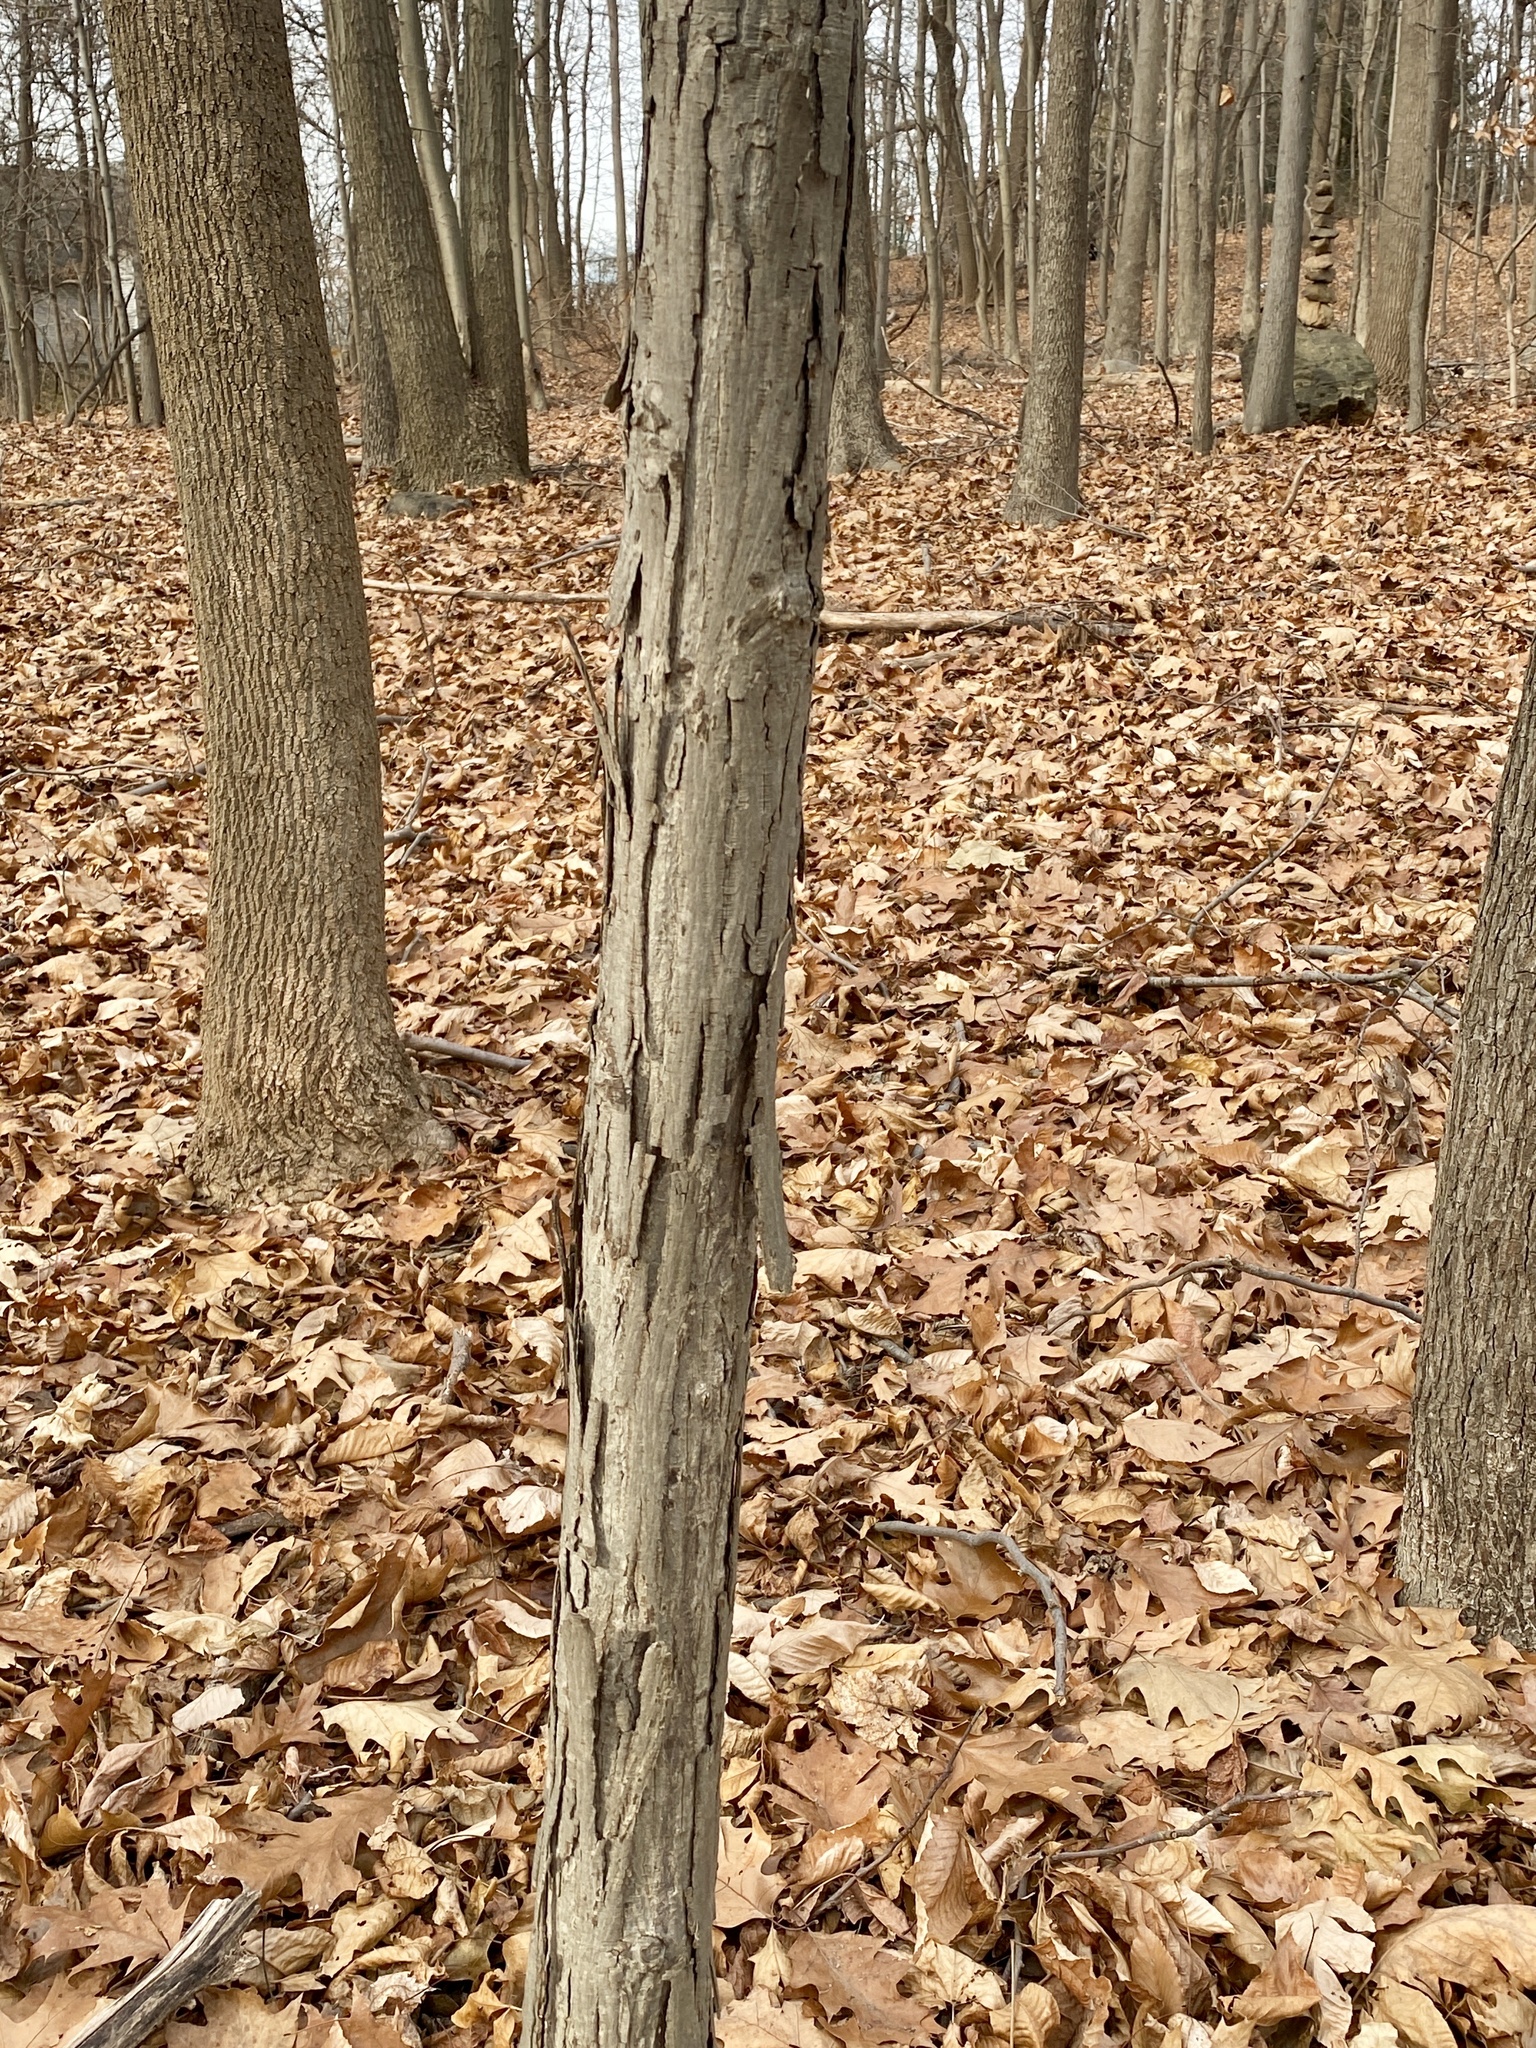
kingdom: Plantae
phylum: Tracheophyta
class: Magnoliopsida
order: Fagales
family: Juglandaceae
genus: Carya
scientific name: Carya ovata
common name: Shagbark hickory
